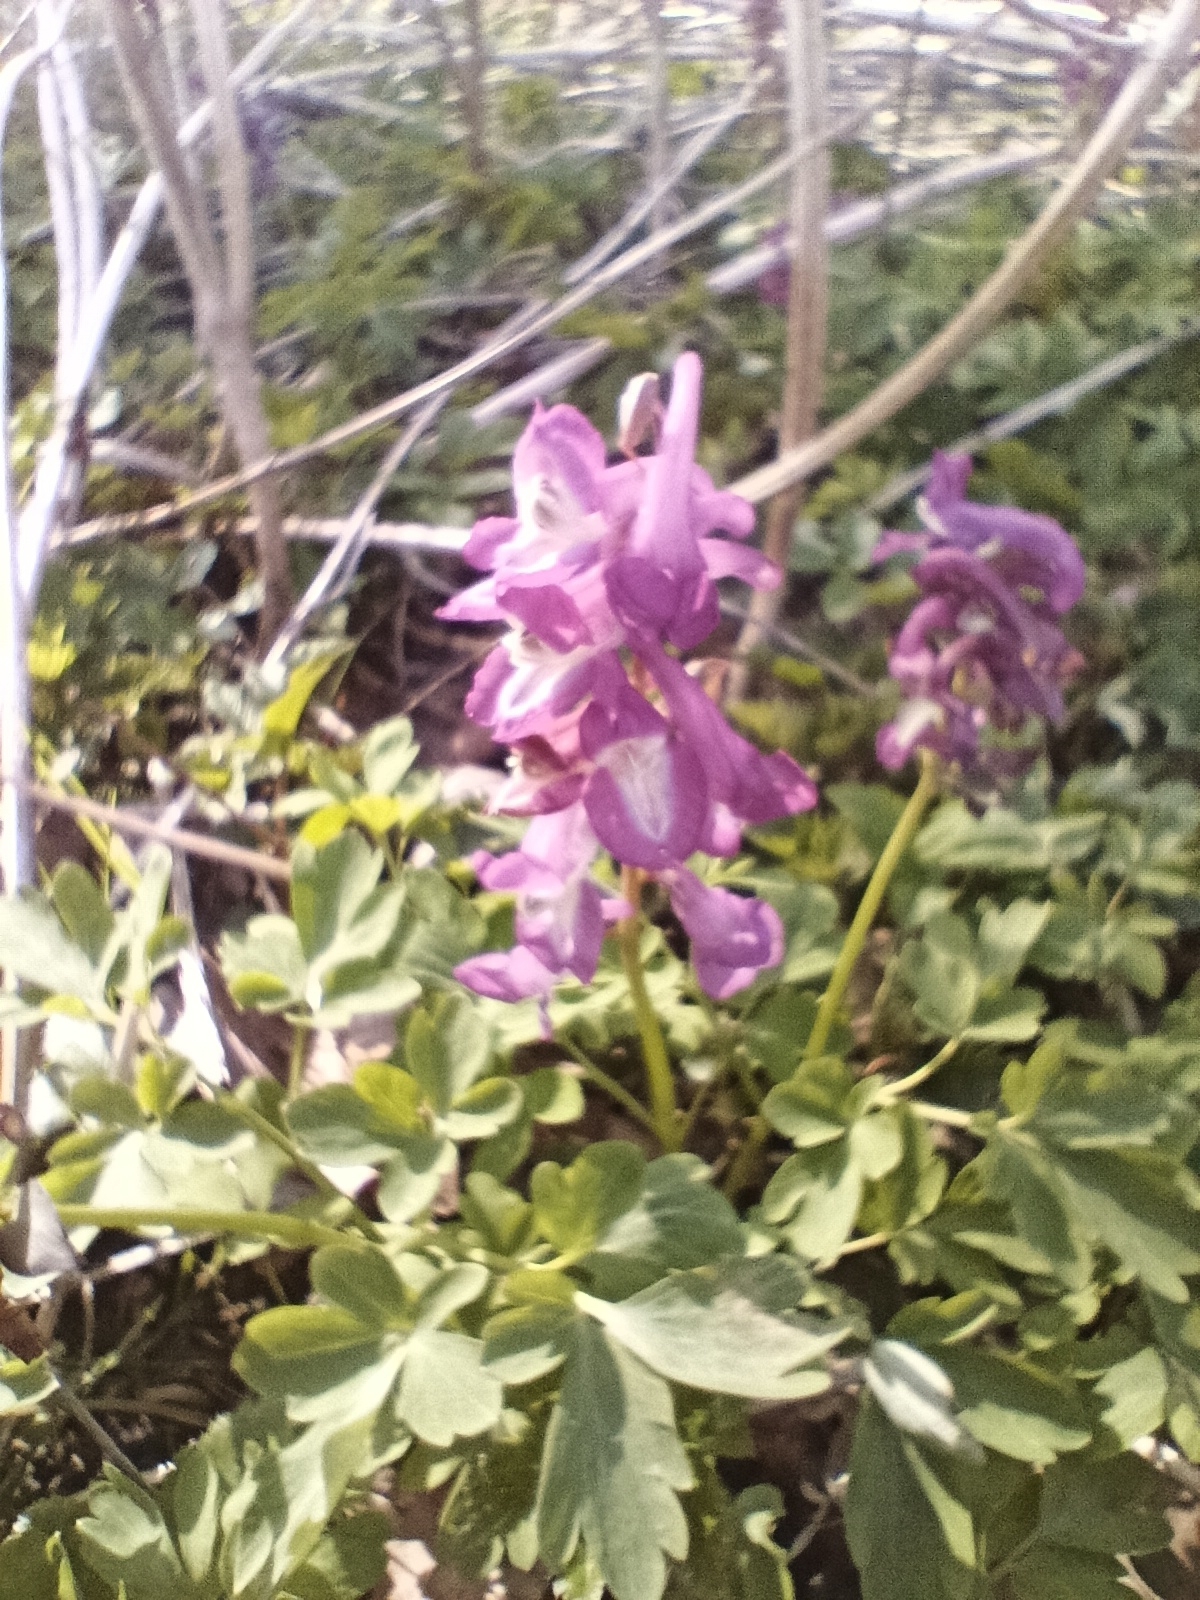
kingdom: Plantae
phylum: Tracheophyta
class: Magnoliopsida
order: Ranunculales
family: Papaveraceae
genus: Corydalis
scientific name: Corydalis cava
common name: Hollowroot
